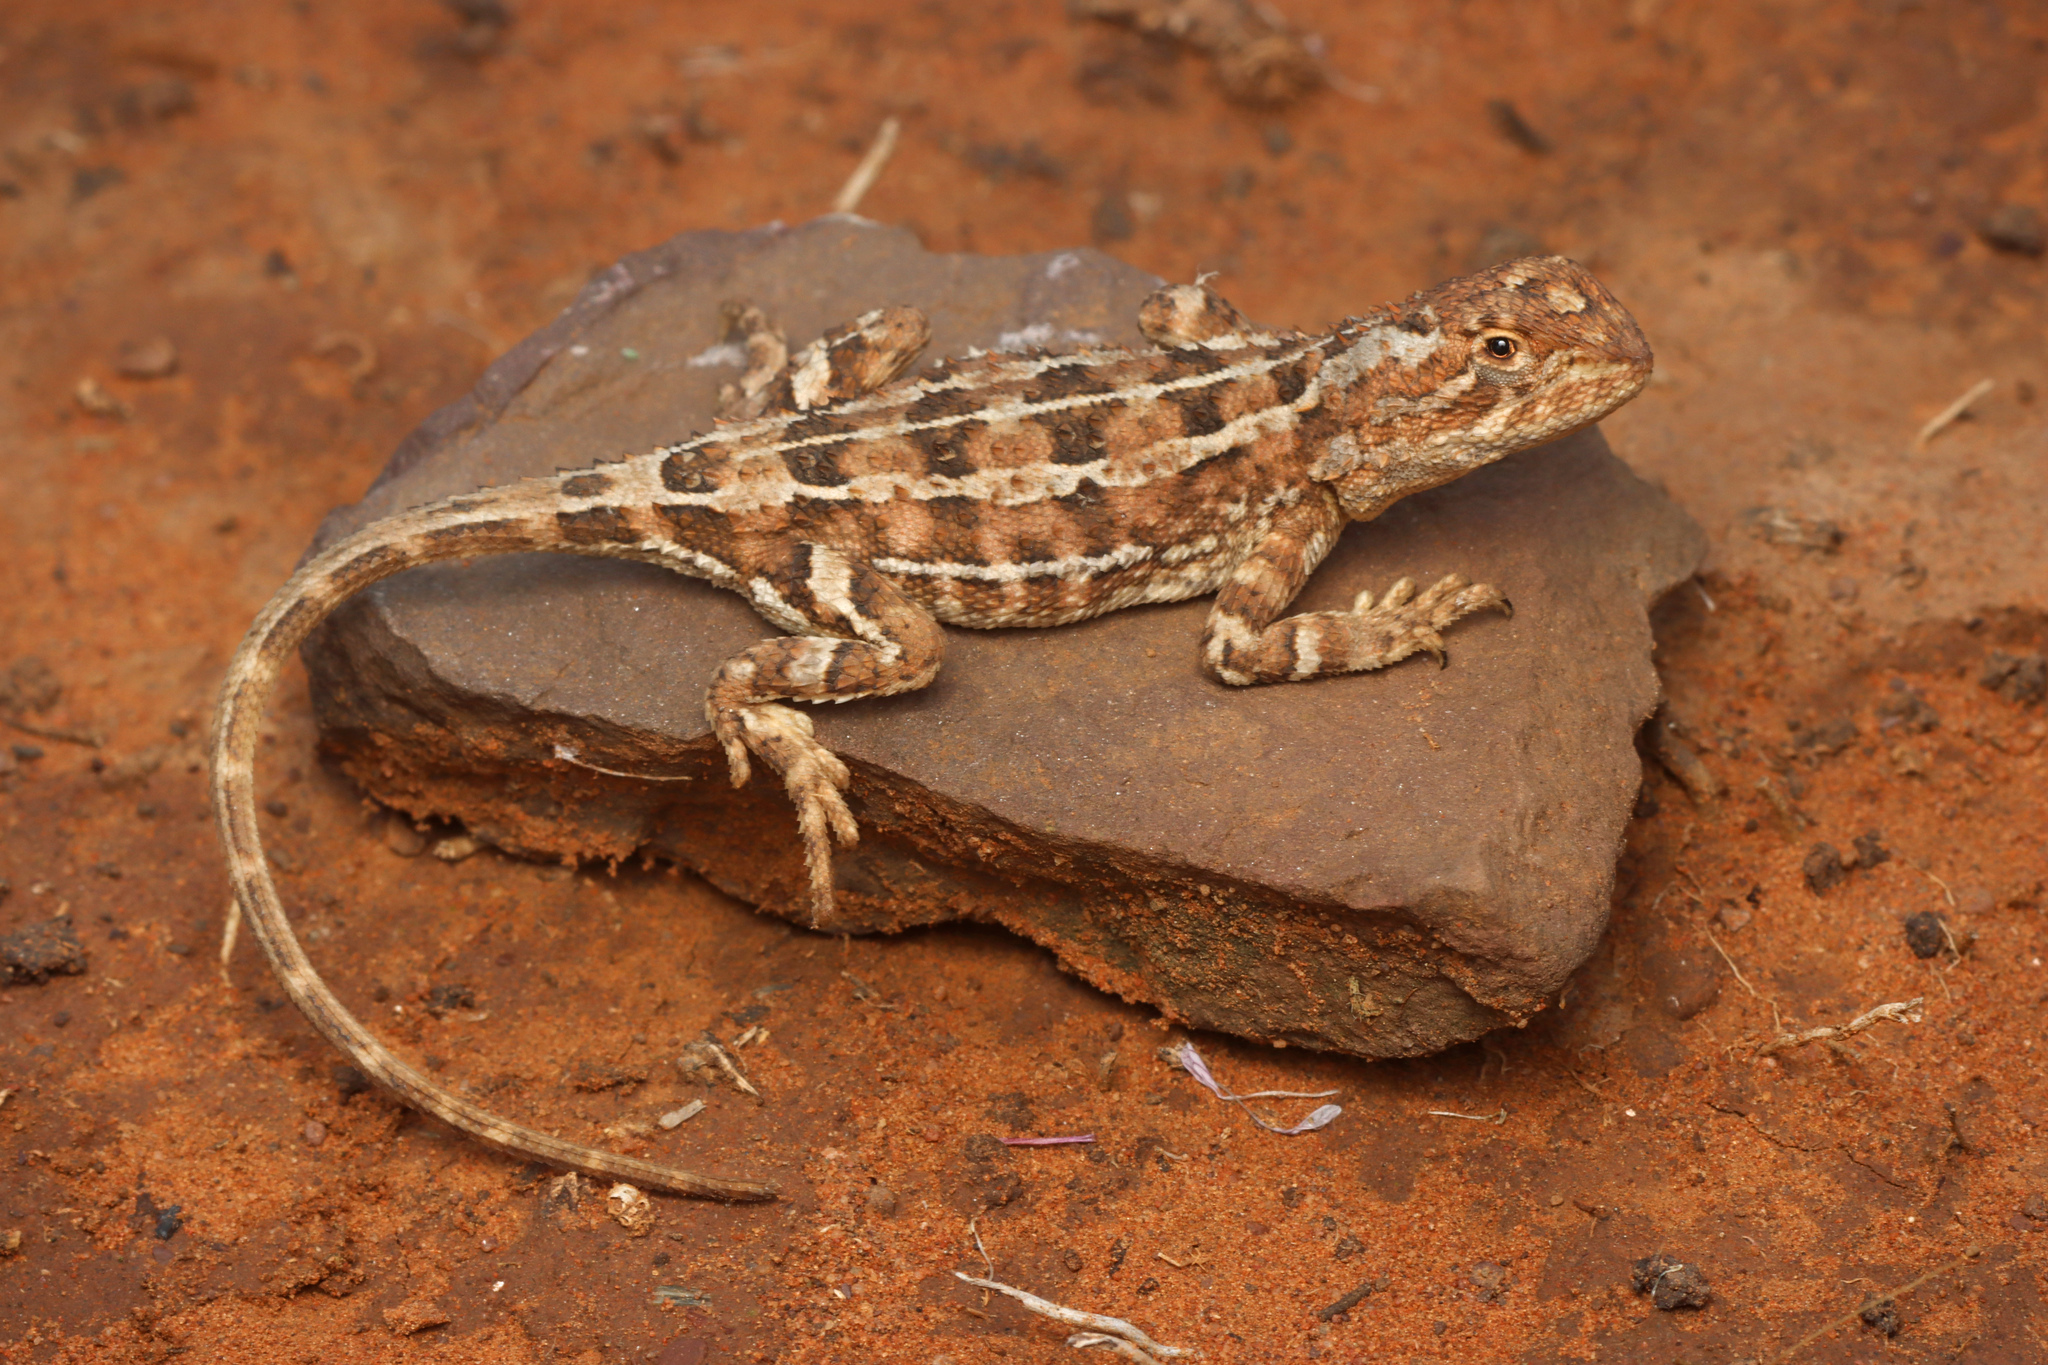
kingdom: Animalia
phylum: Chordata
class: Squamata
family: Agamidae
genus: Tympanocryptis
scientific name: Tympanocryptis tetraporophora
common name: Eyrean earless dragon
